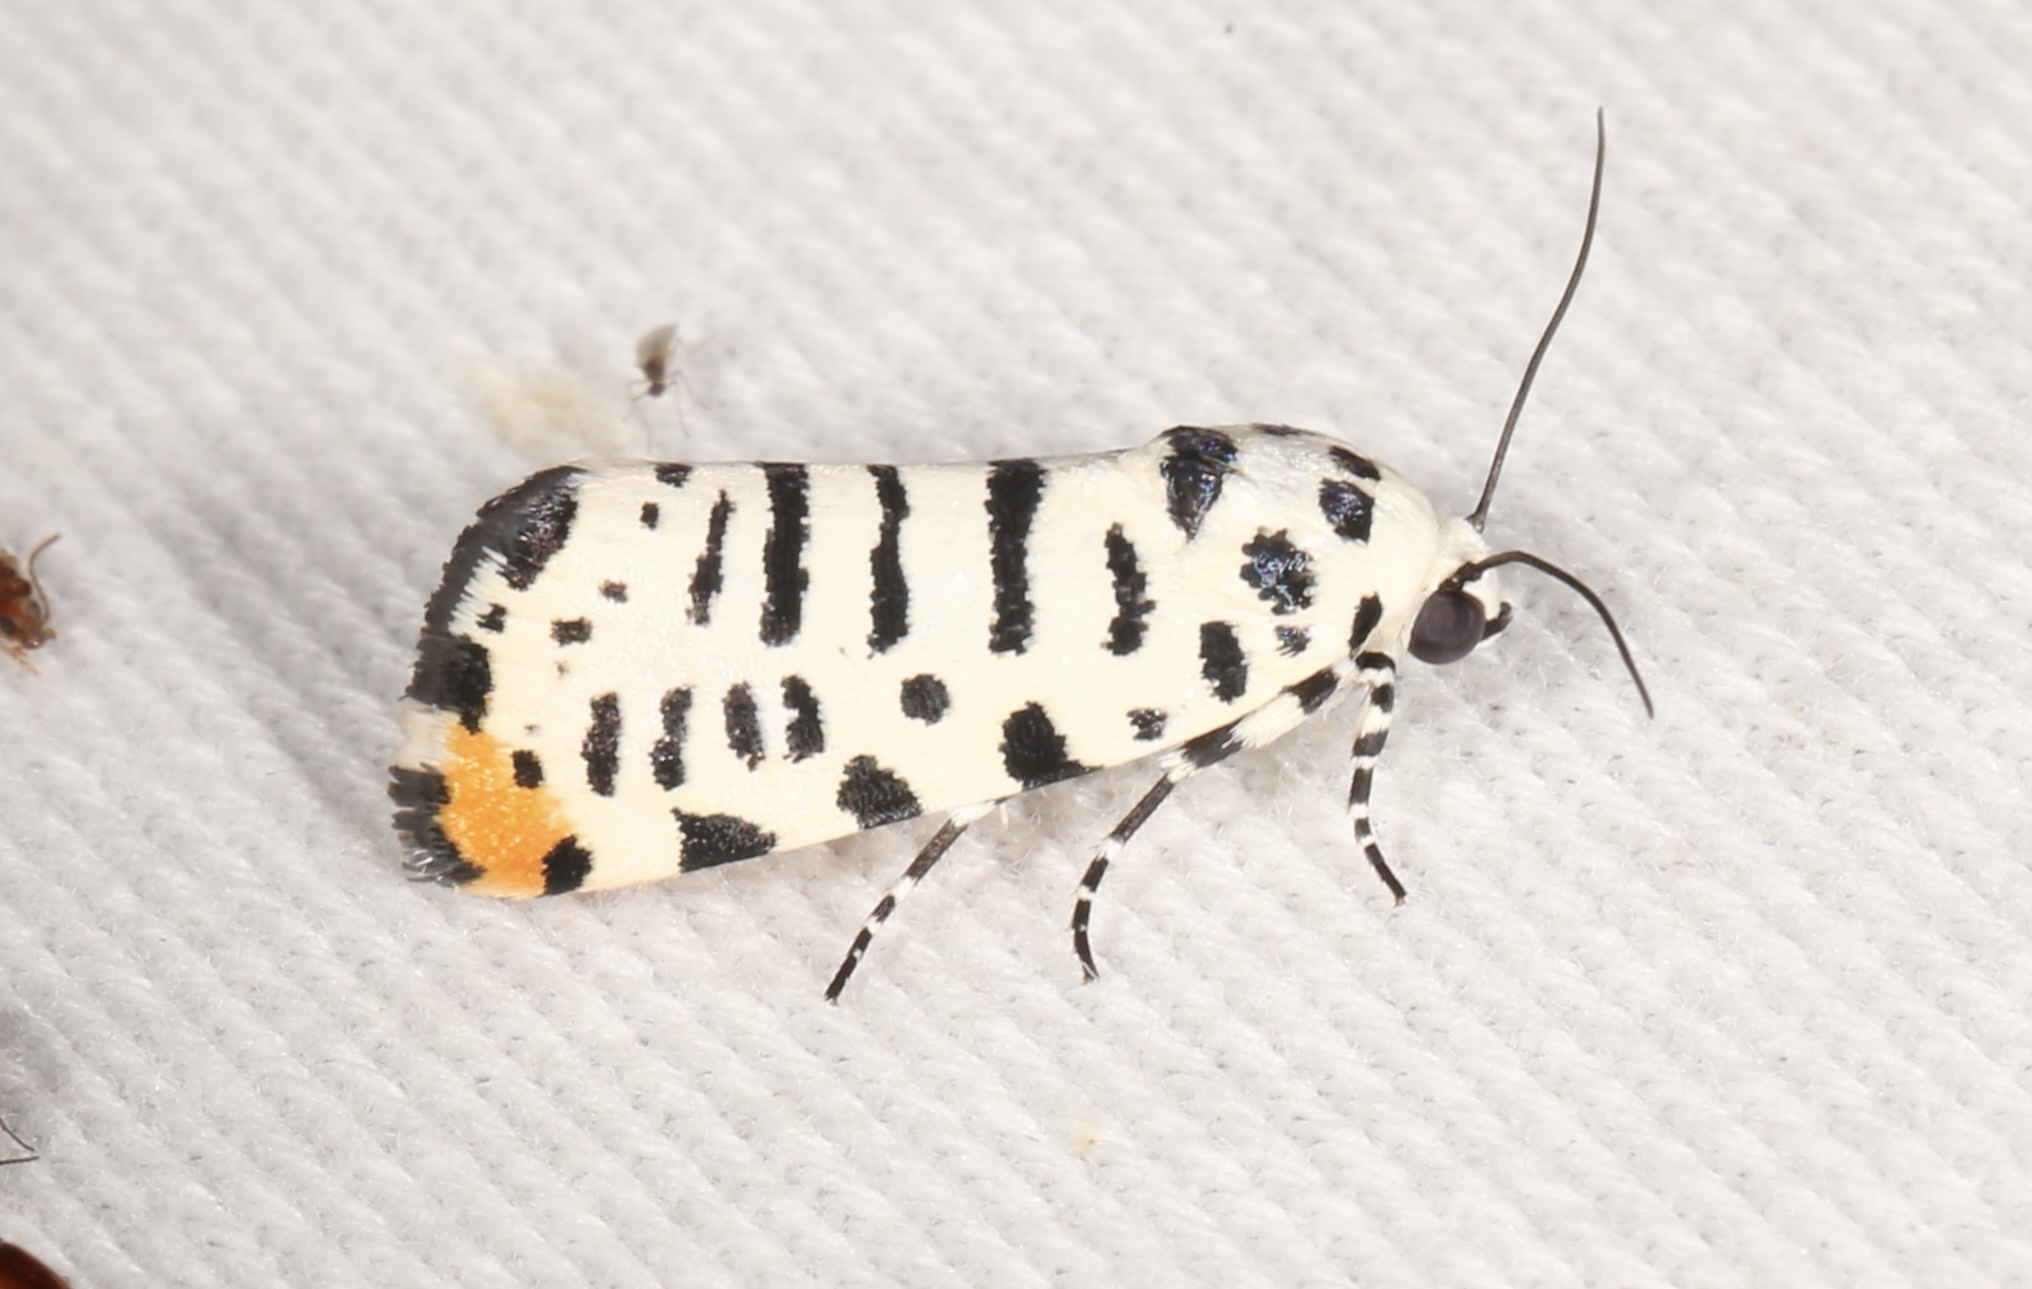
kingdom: Animalia
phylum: Arthropoda
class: Insecta
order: Lepidoptera
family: Noctuidae
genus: Acontia
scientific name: Acontia idella
